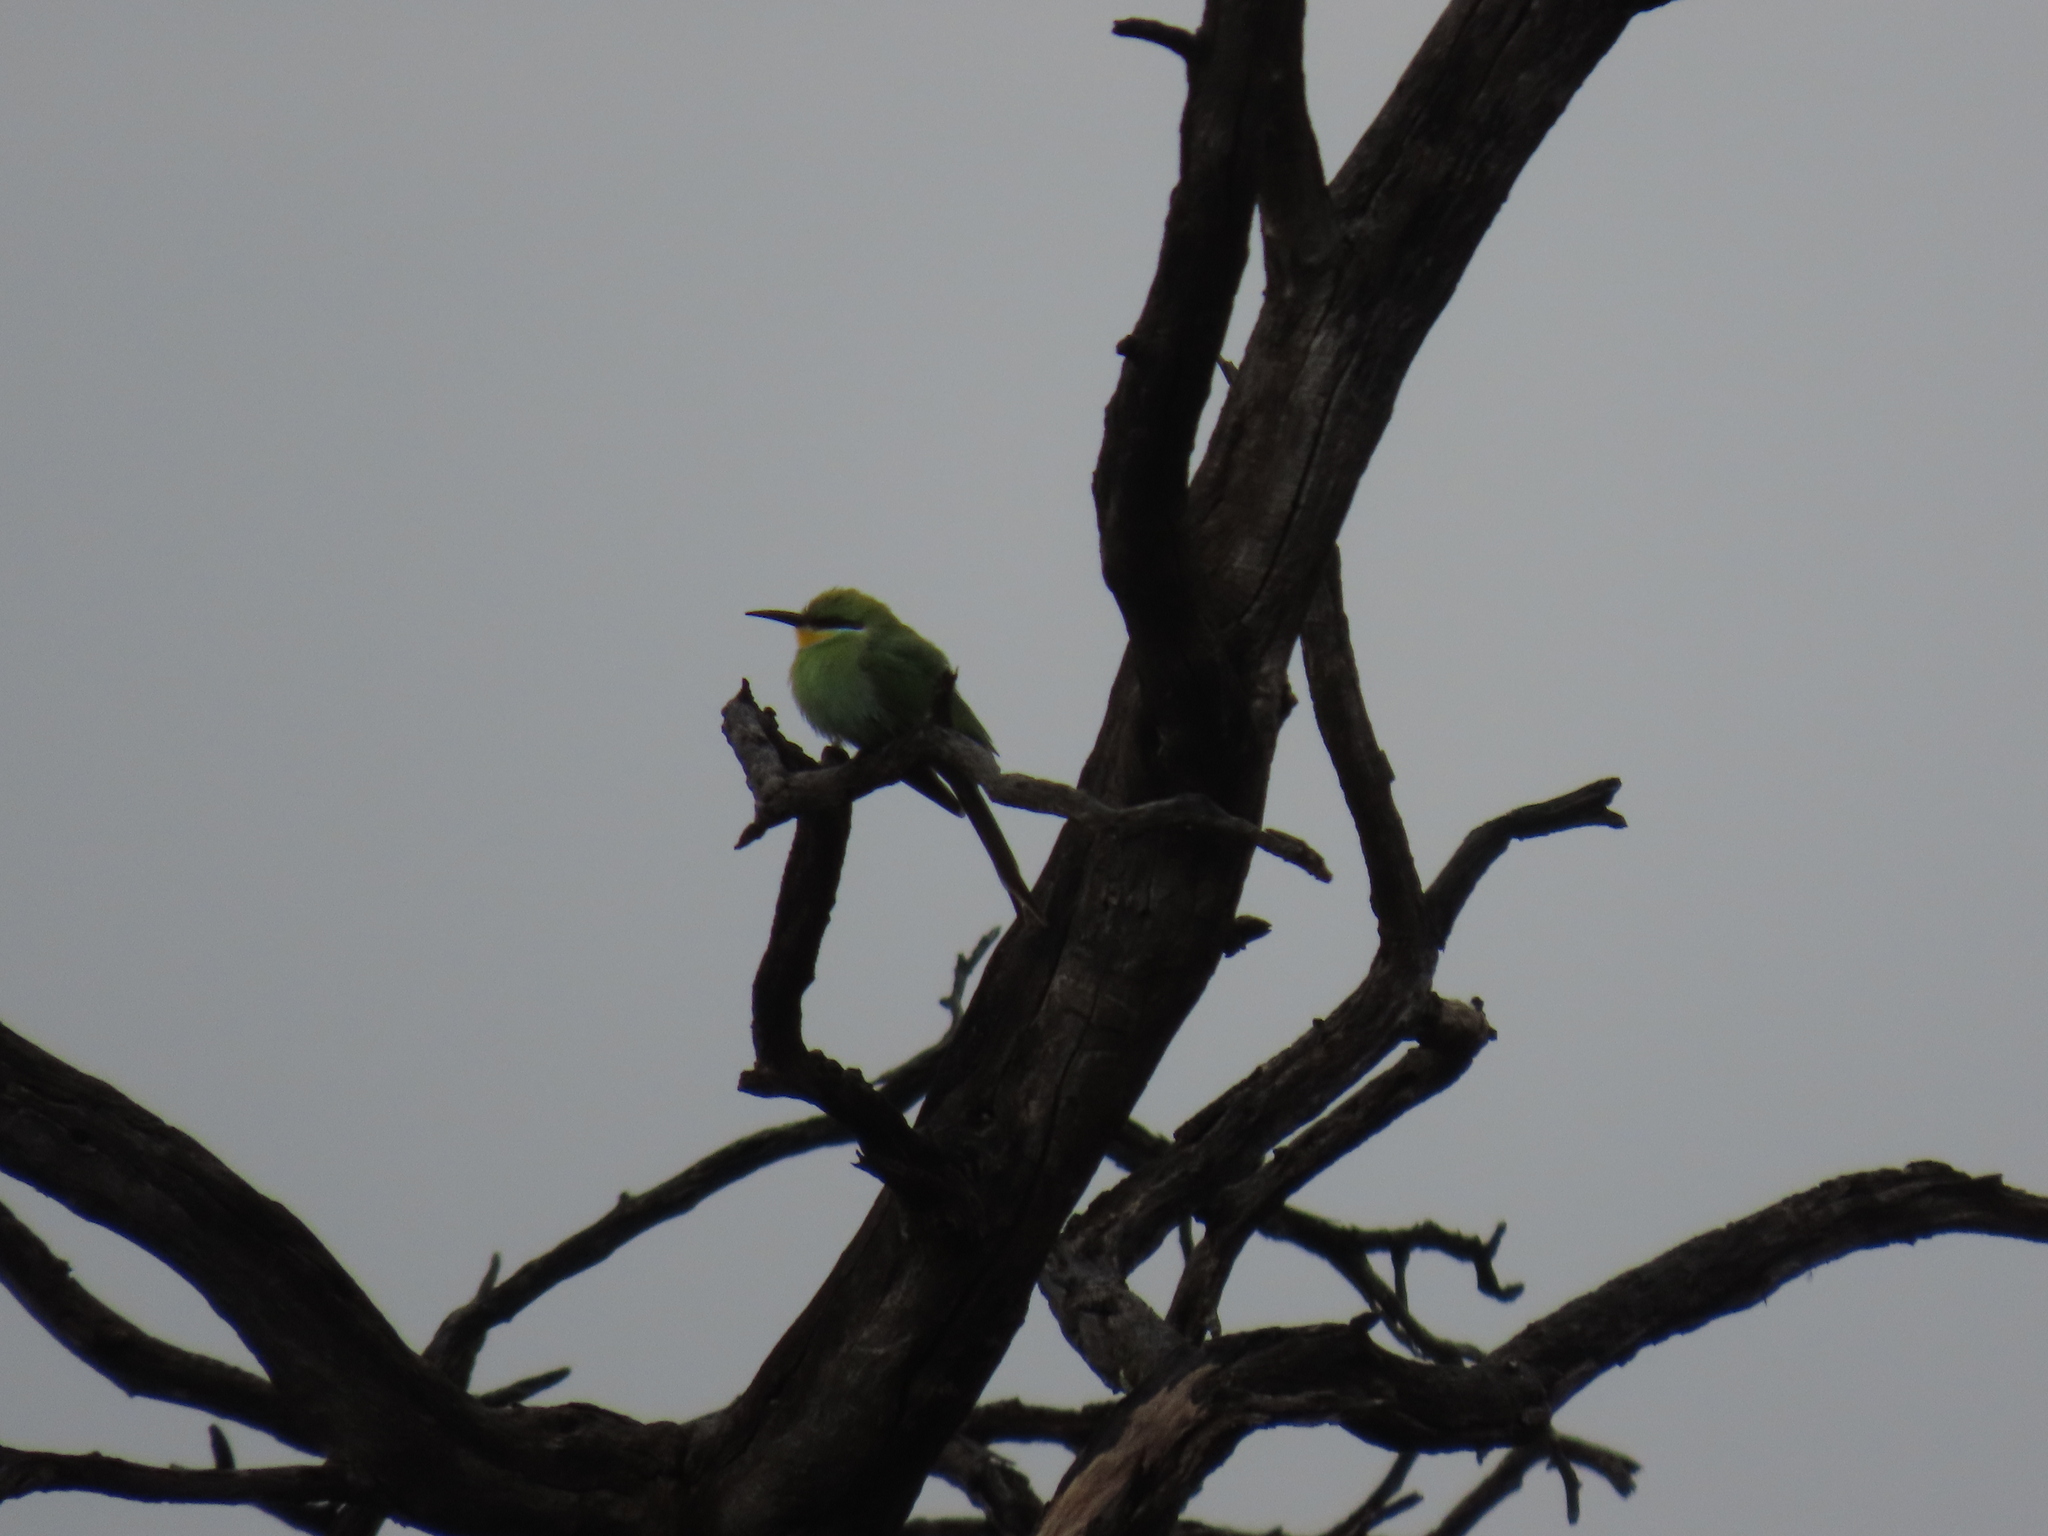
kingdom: Animalia
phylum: Chordata
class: Aves
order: Coraciiformes
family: Meropidae
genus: Merops
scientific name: Merops hirundineus
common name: Swallow-tailed bee-eater
